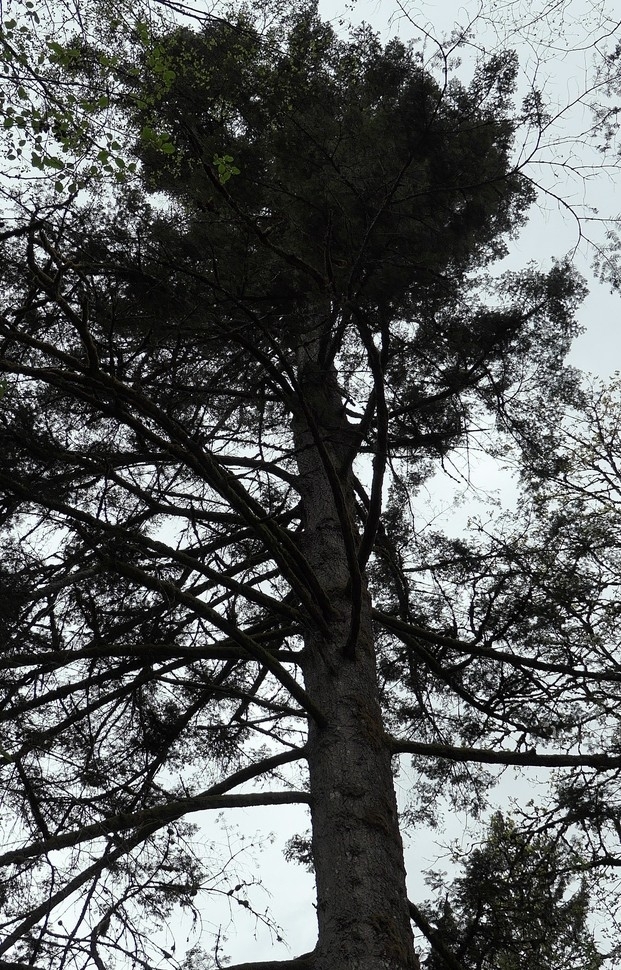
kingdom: Plantae
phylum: Tracheophyta
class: Pinopsida
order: Pinales
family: Pinaceae
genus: Abies
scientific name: Abies grandis
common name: Giant fir
